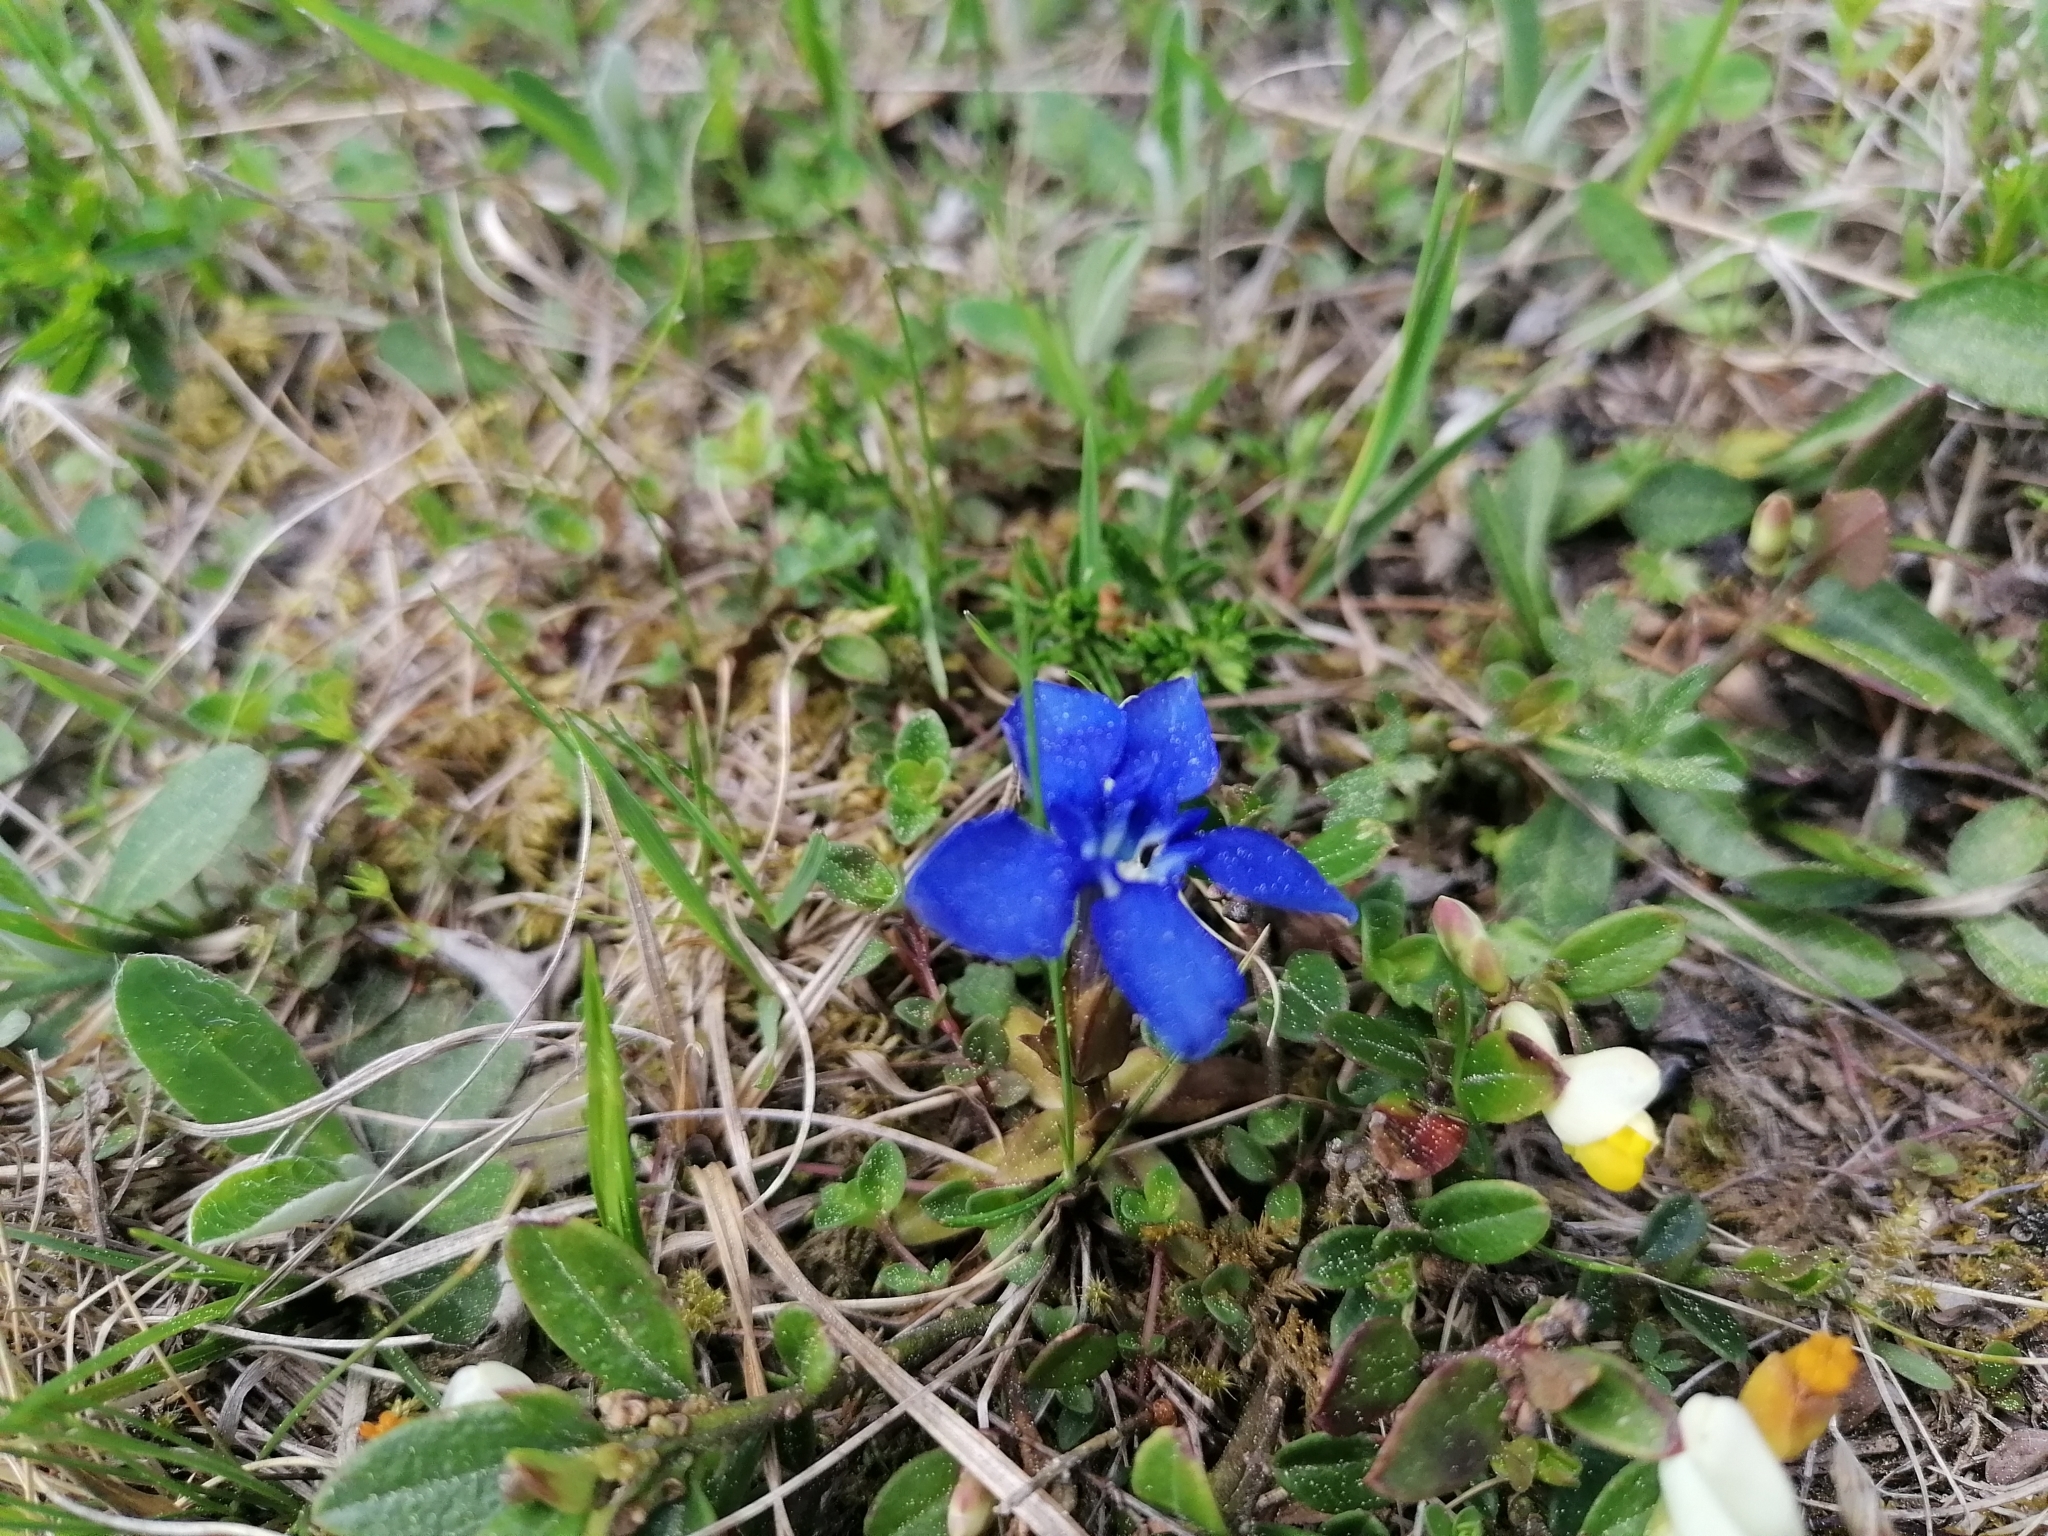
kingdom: Plantae
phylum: Tracheophyta
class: Magnoliopsida
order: Gentianales
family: Gentianaceae
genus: Gentiana
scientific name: Gentiana verna
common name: Spring gentian
